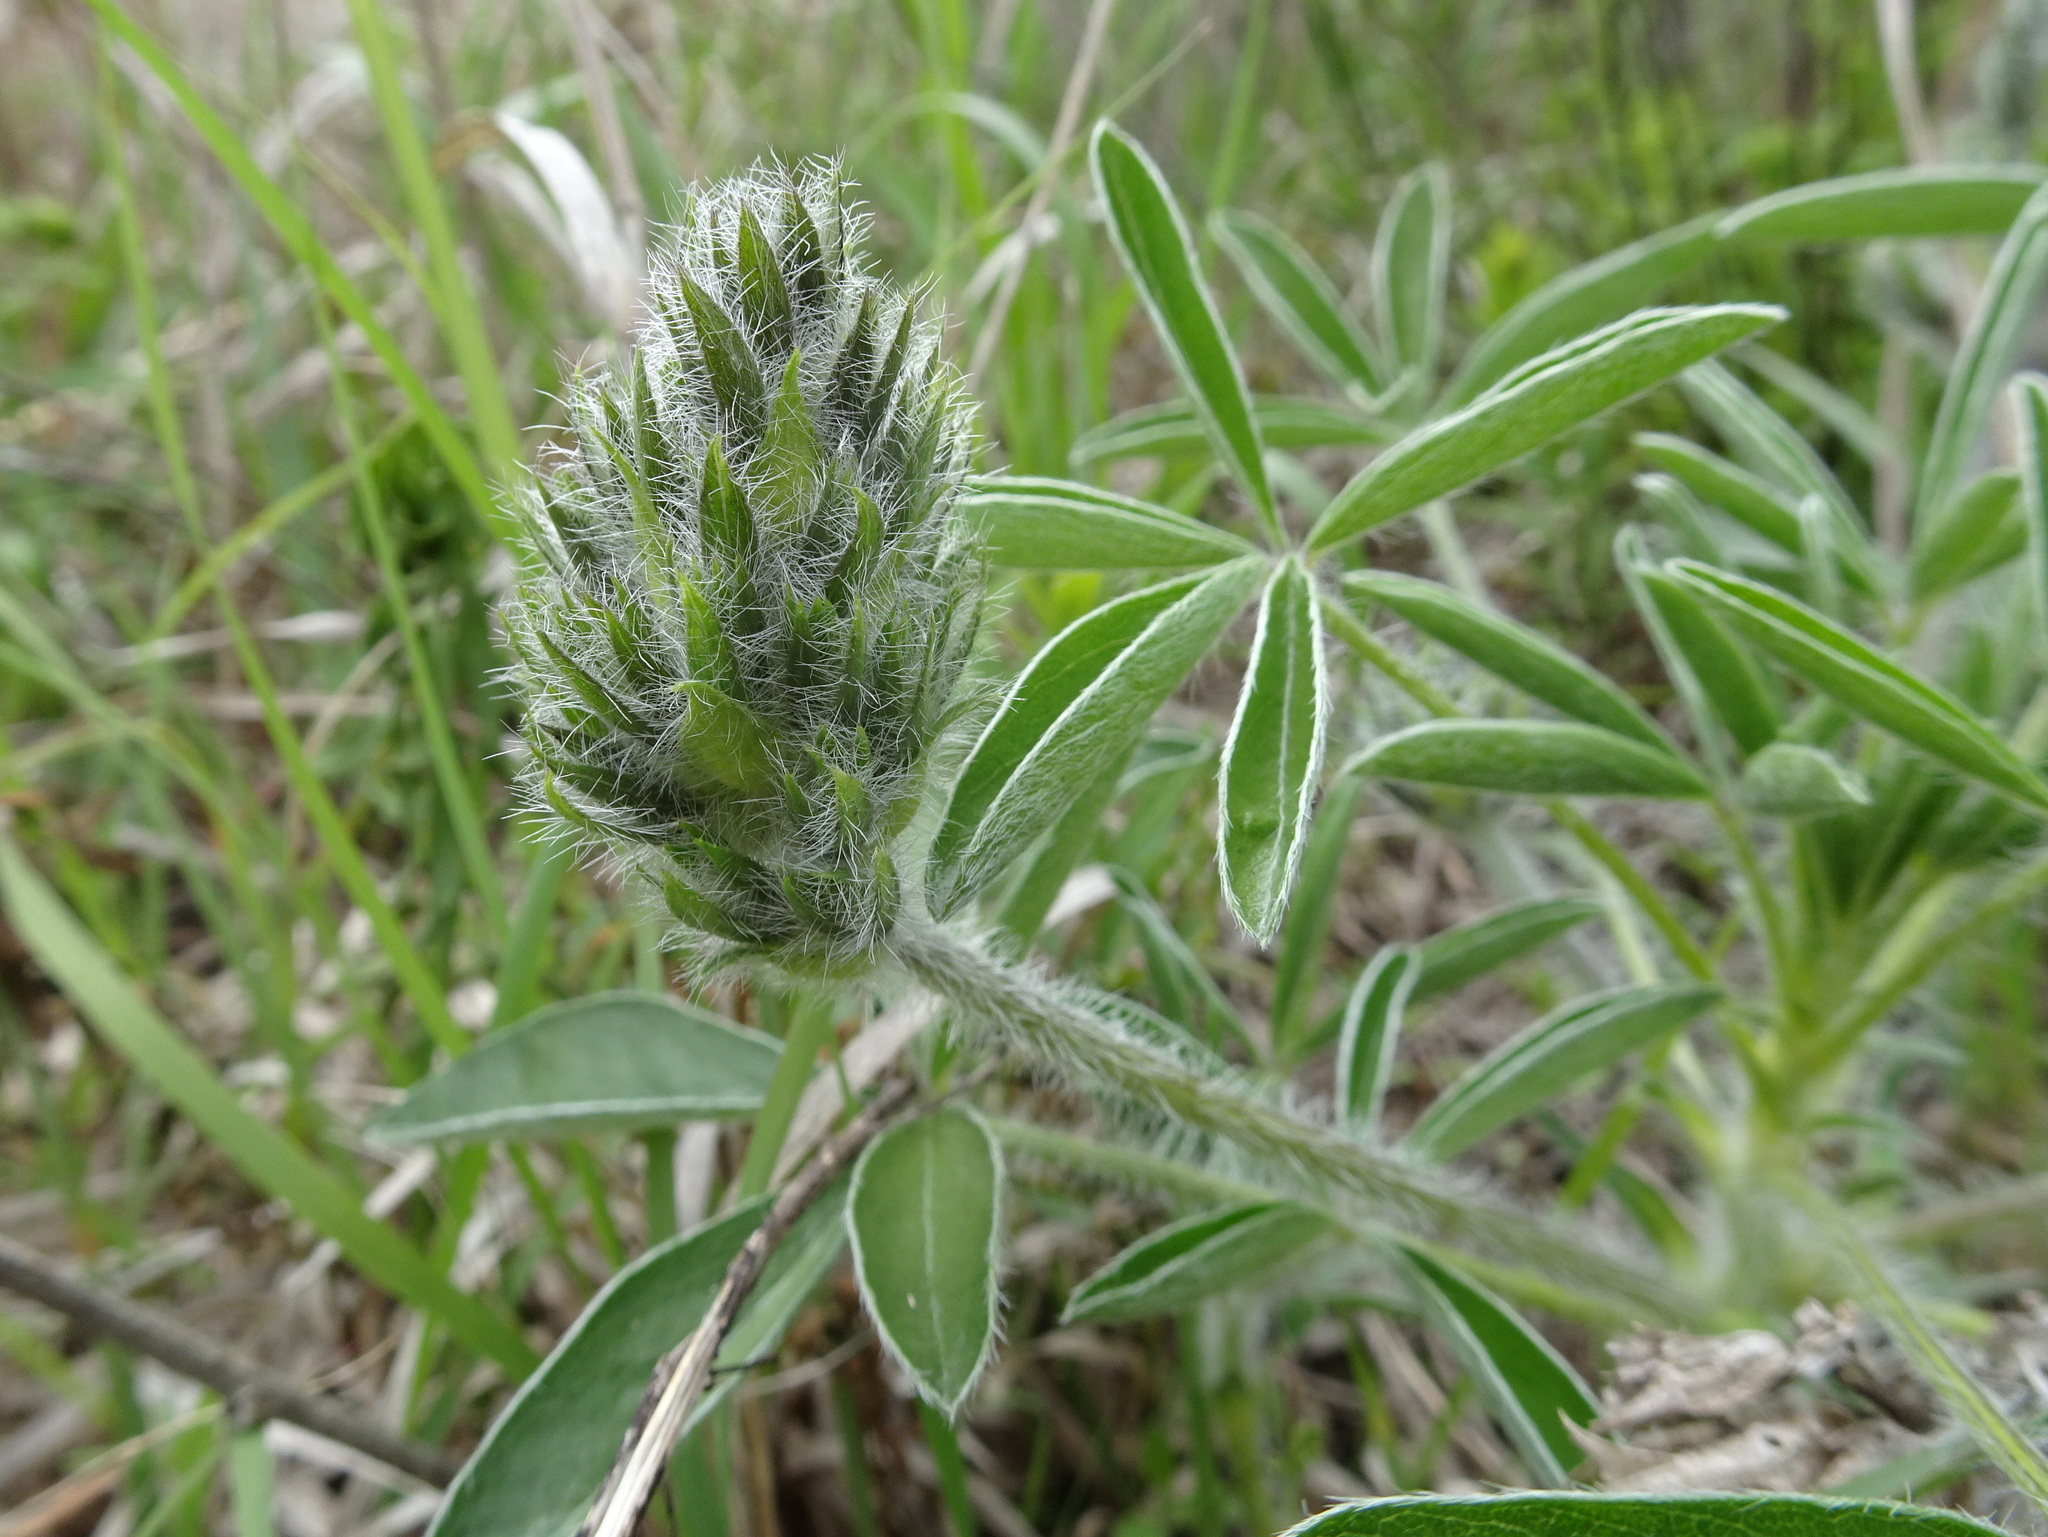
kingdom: Plantae
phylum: Tracheophyta
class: Magnoliopsida
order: Fabales
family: Fabaceae
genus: Pediomelum
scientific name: Pediomelum esculentum
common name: Indian-turnip
